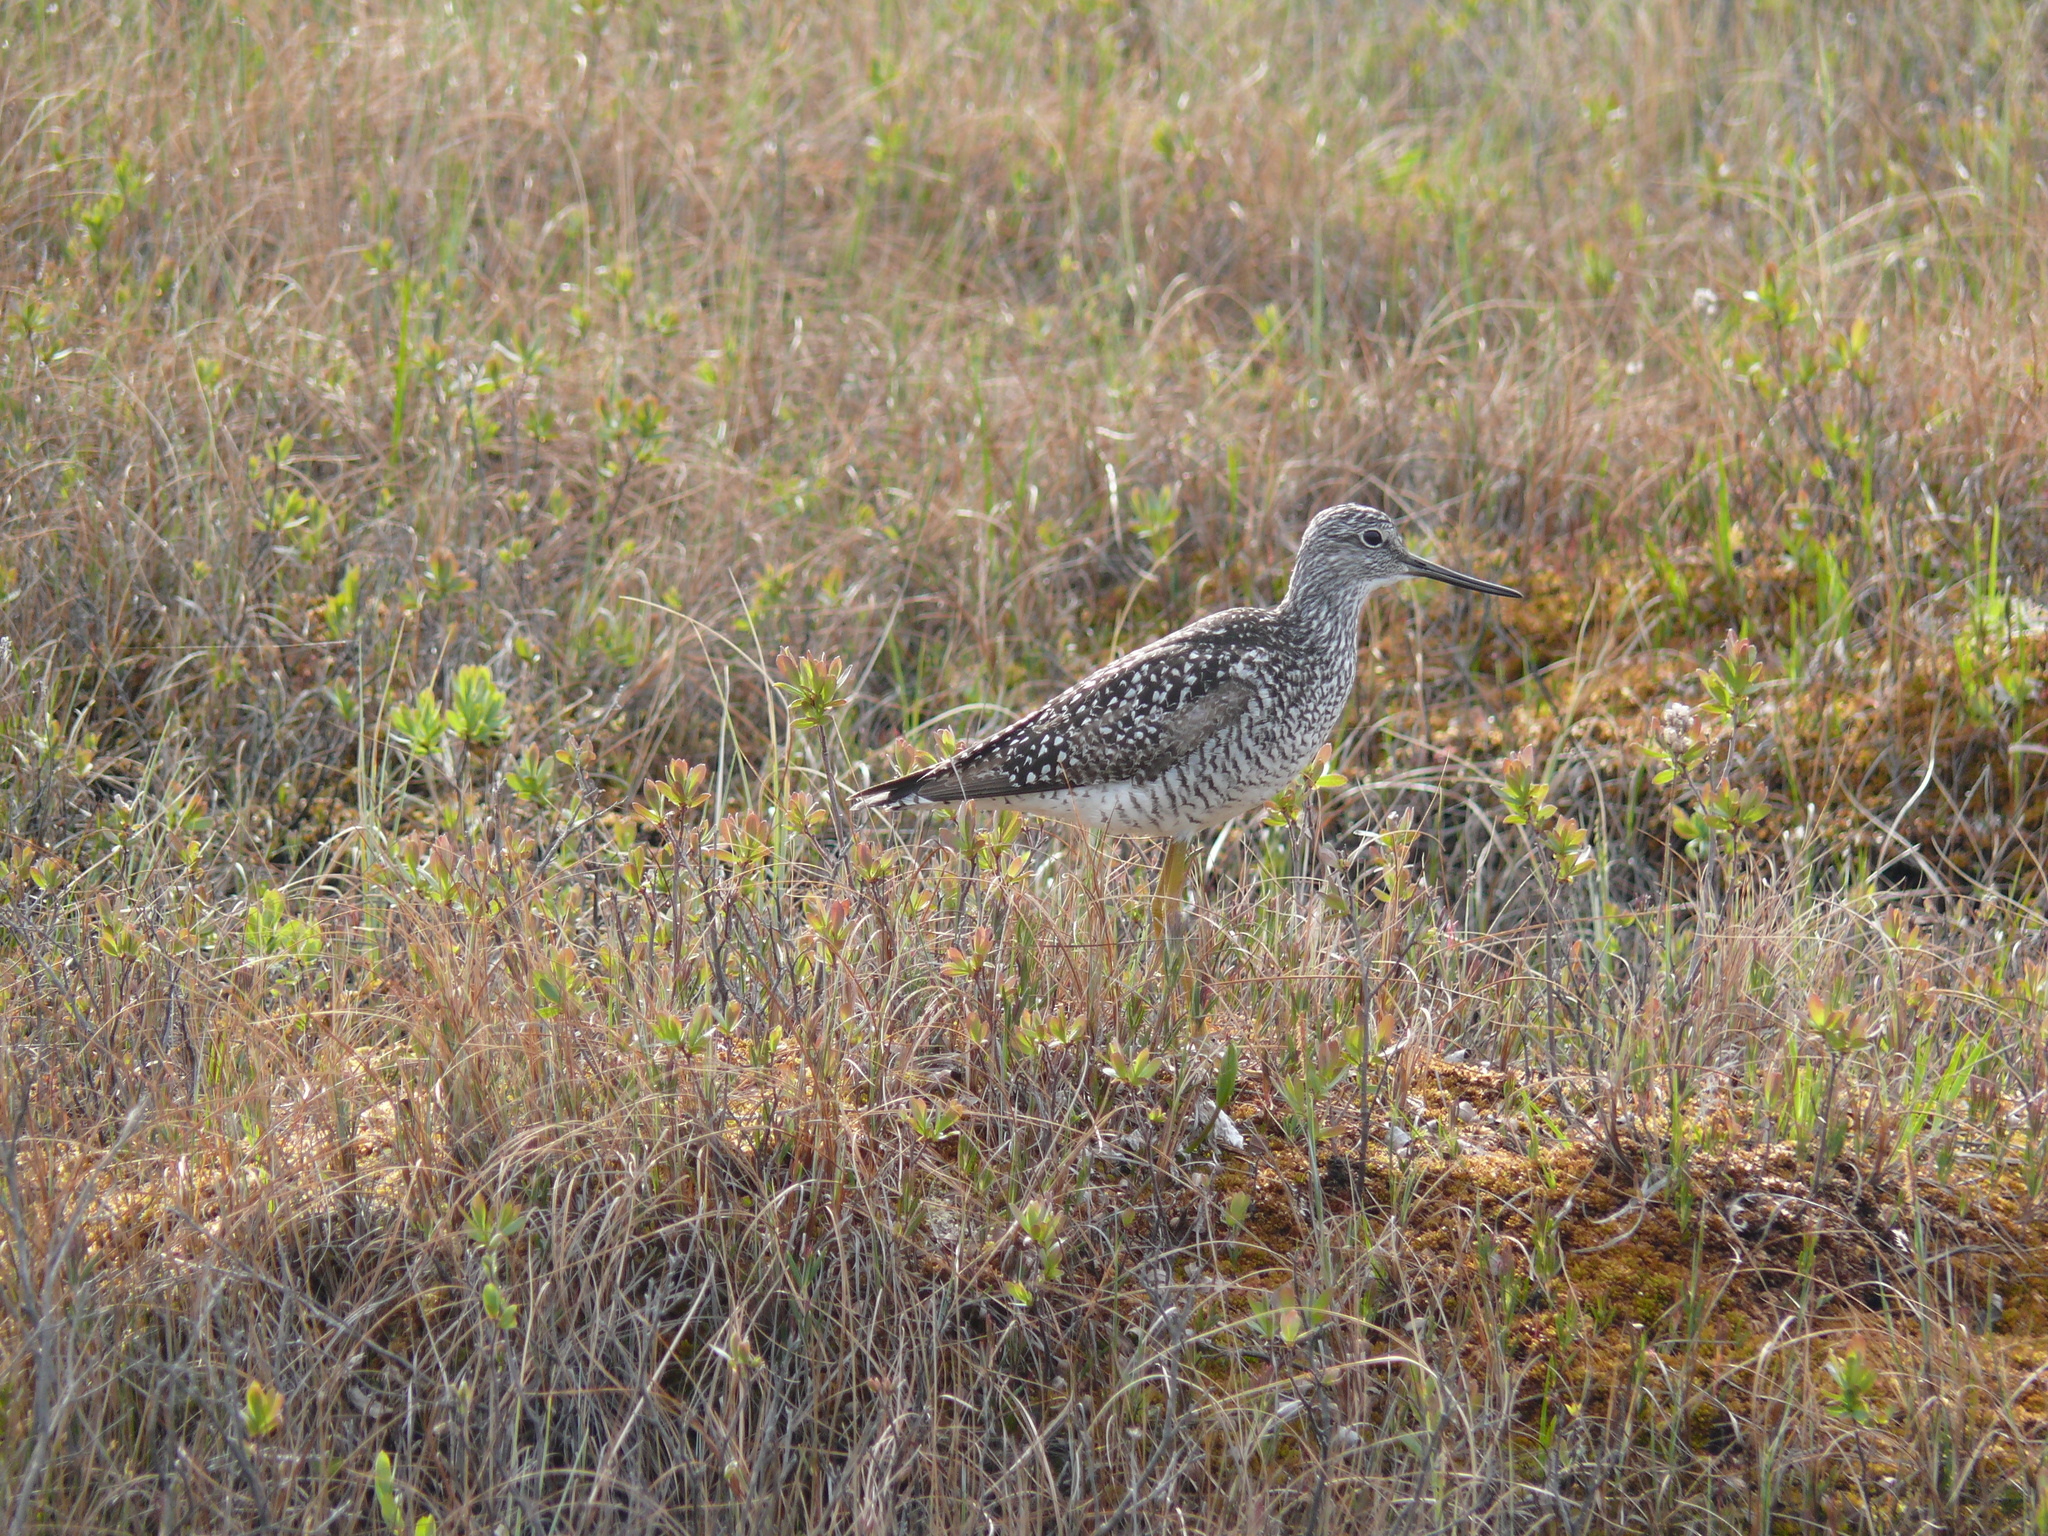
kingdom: Animalia
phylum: Chordata
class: Aves
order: Charadriiformes
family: Scolopacidae
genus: Tringa
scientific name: Tringa melanoleuca
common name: Greater yellowlegs
